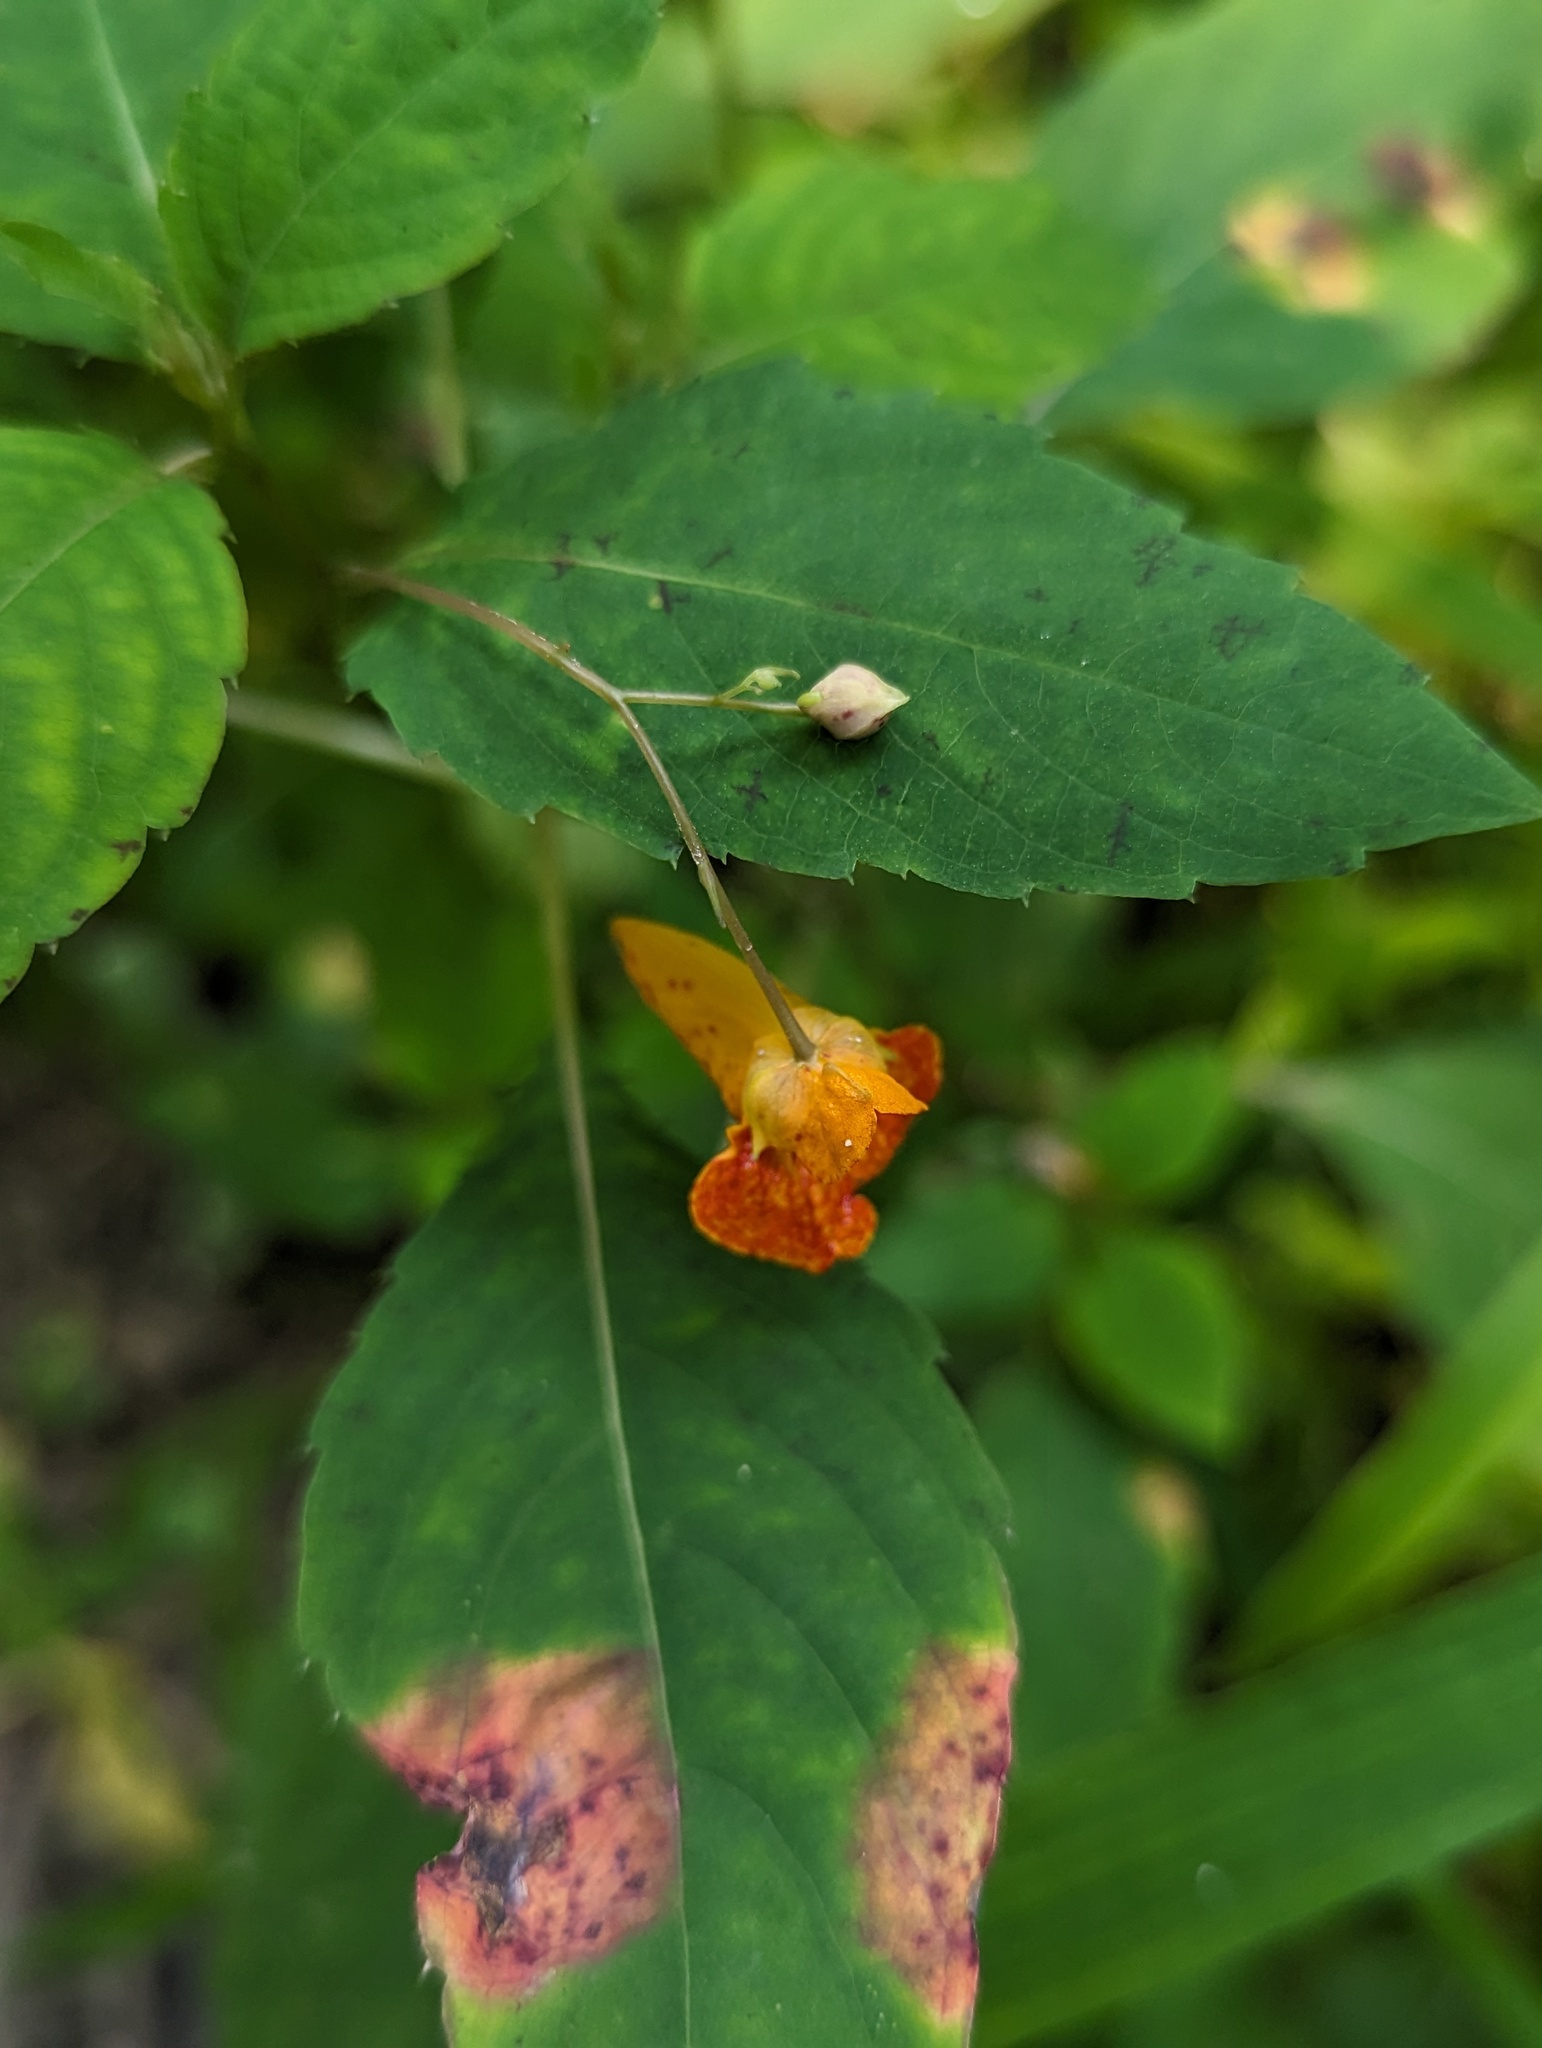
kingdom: Plantae
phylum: Tracheophyta
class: Magnoliopsida
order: Ericales
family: Balsaminaceae
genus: Impatiens
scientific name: Impatiens capensis
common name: Orange balsam
